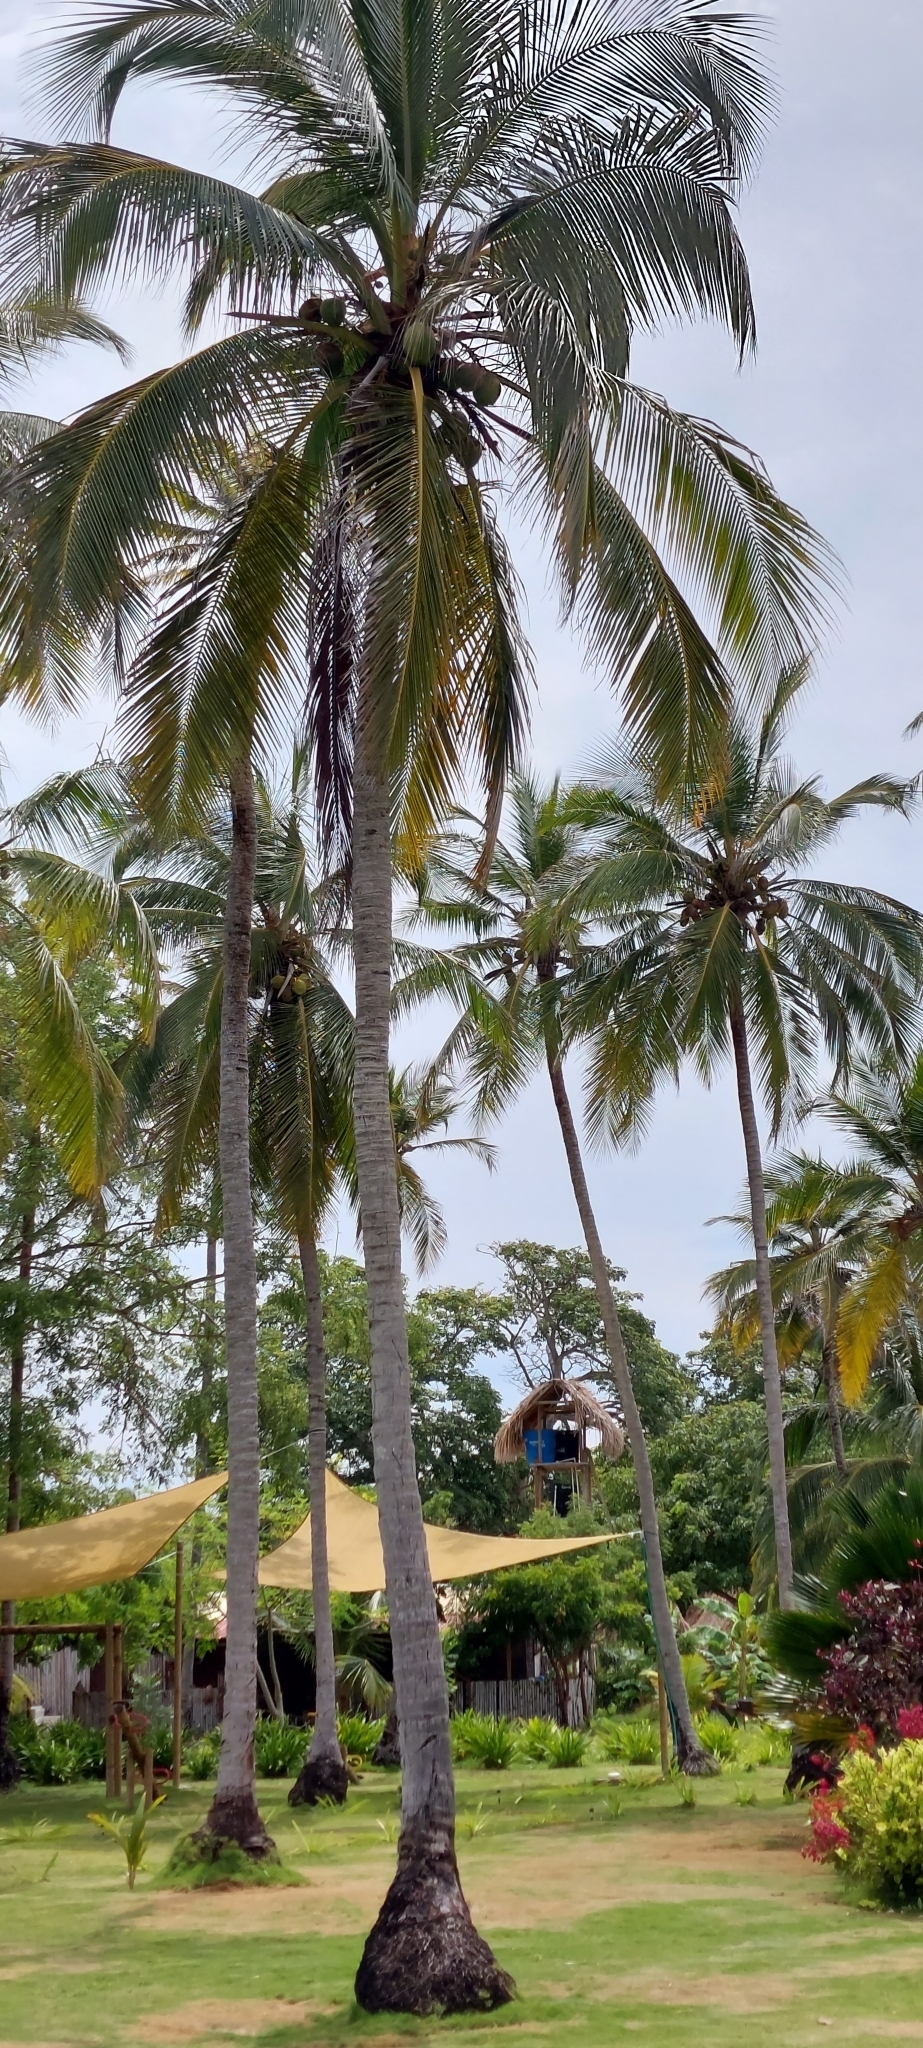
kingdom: Plantae
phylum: Tracheophyta
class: Liliopsida
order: Arecales
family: Arecaceae
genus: Cocos
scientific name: Cocos nucifera
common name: Coconut palm
